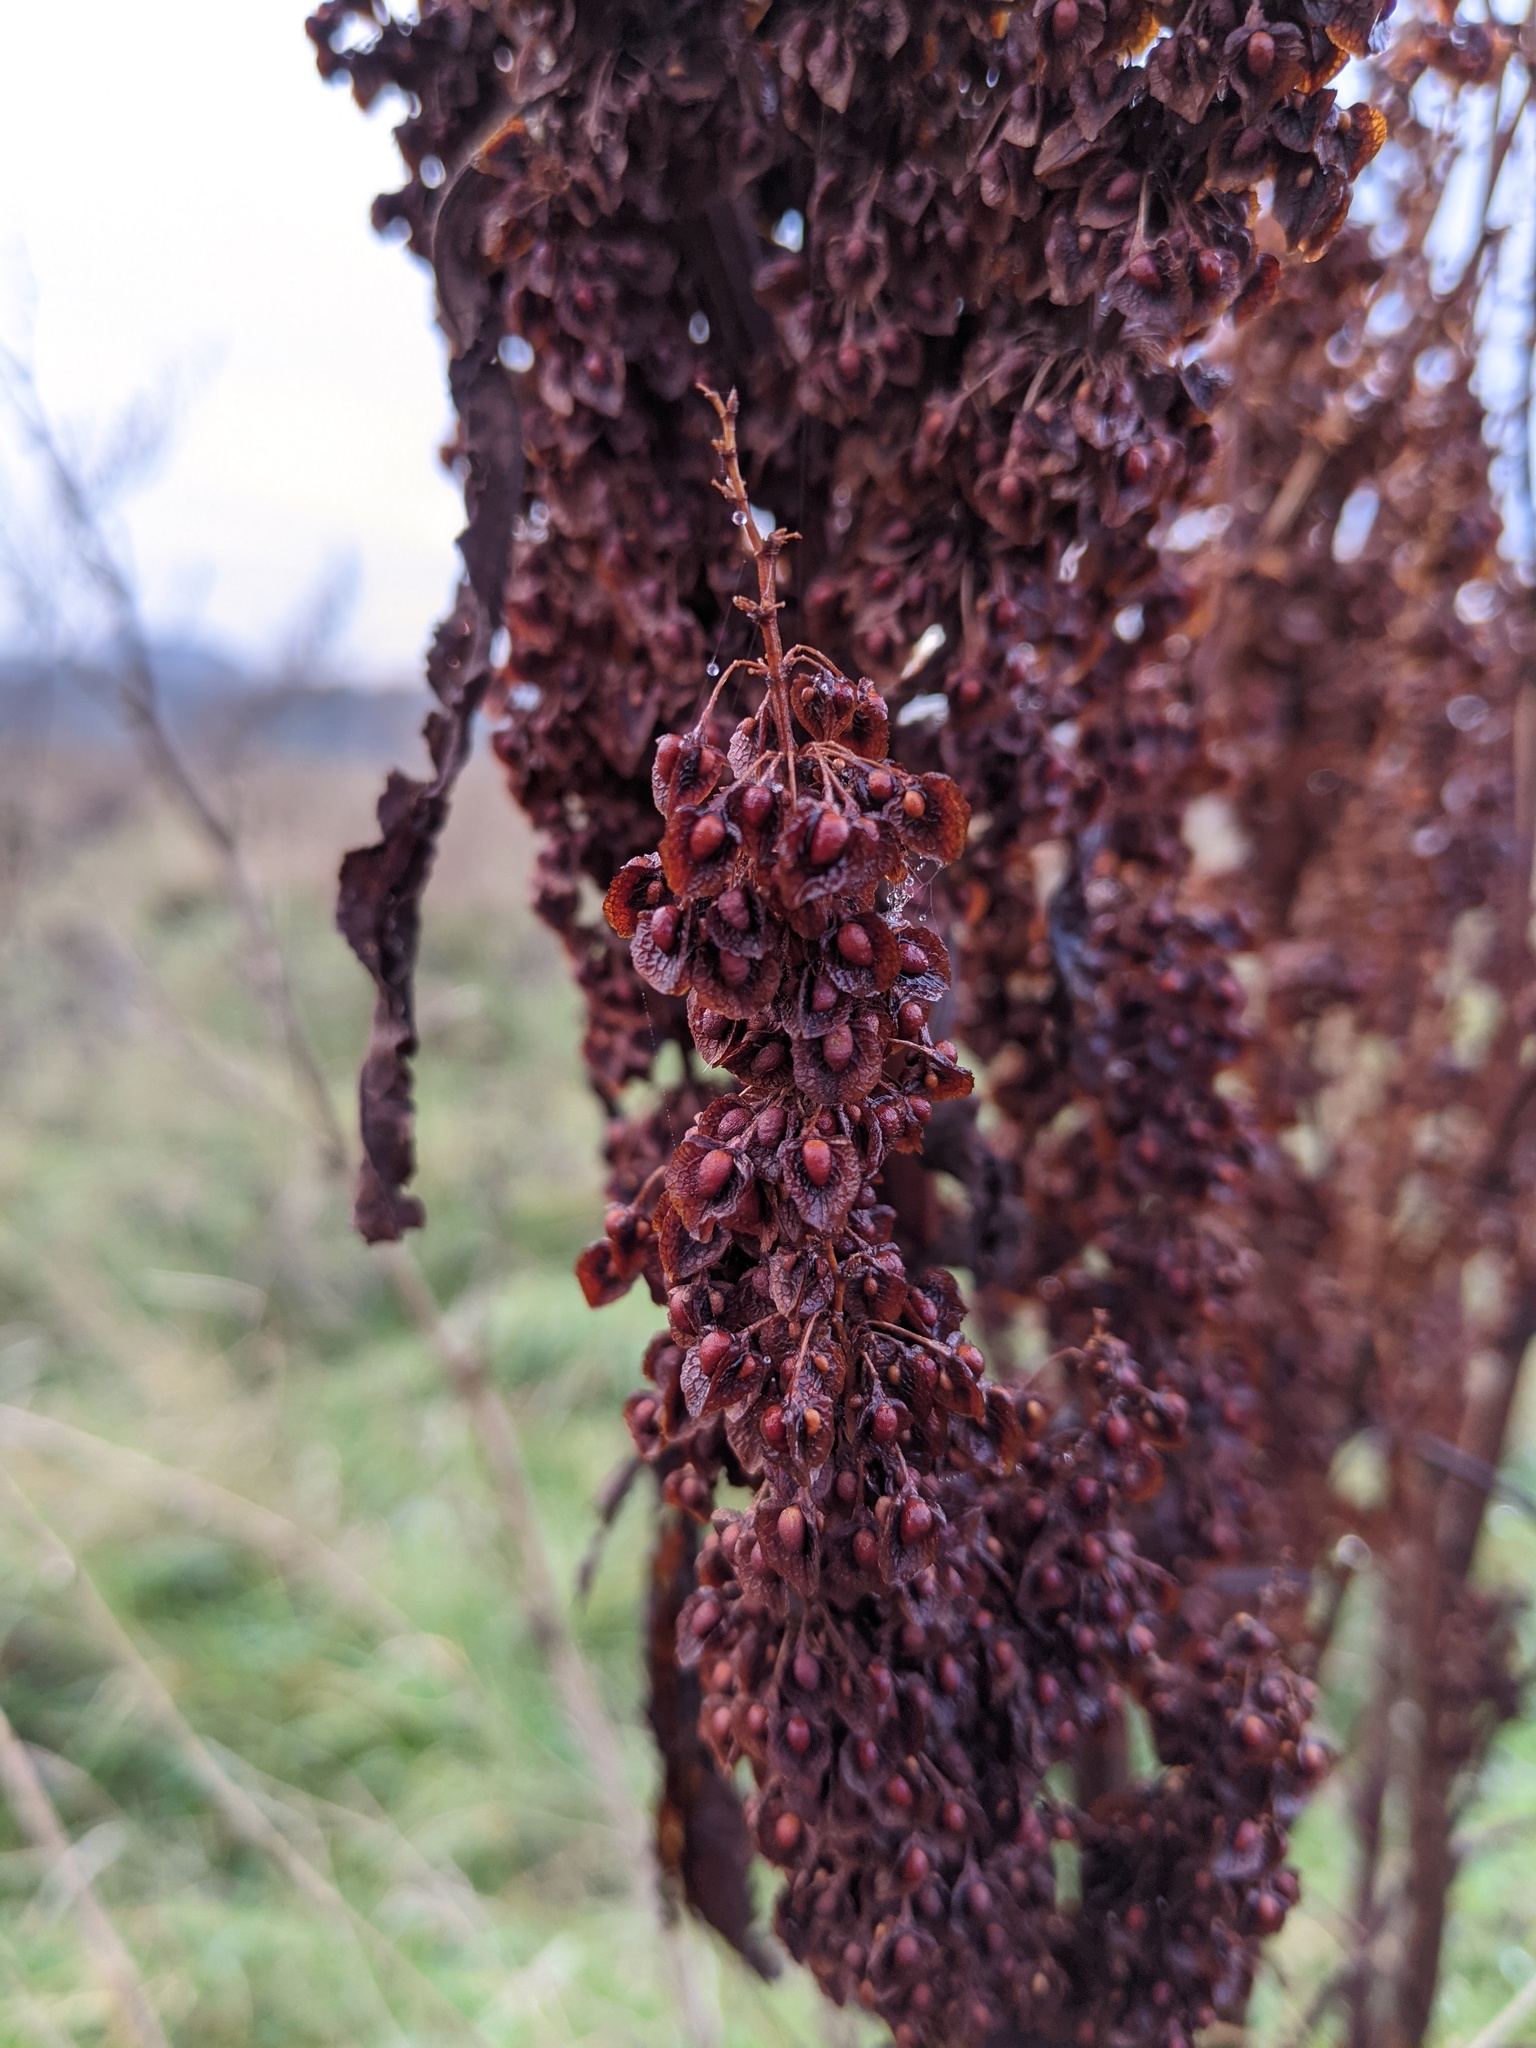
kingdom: Plantae
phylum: Tracheophyta
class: Magnoliopsida
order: Caryophyllales
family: Polygonaceae
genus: Rumex
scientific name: Rumex crispus
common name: Curled dock
